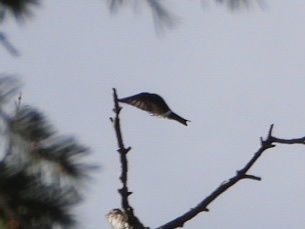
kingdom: Animalia
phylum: Chordata
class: Aves
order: Passeriformes
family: Hirundinidae
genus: Tachycineta
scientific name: Tachycineta thalassina
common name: Violet-green swallow
